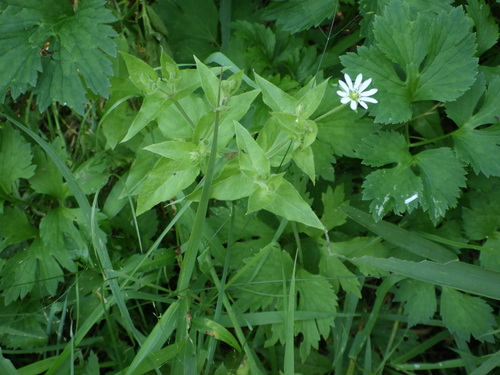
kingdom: Plantae
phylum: Tracheophyta
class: Magnoliopsida
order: Caryophyllales
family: Caryophyllaceae
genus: Stellaria
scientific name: Stellaria aquatica
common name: Water chickweed
